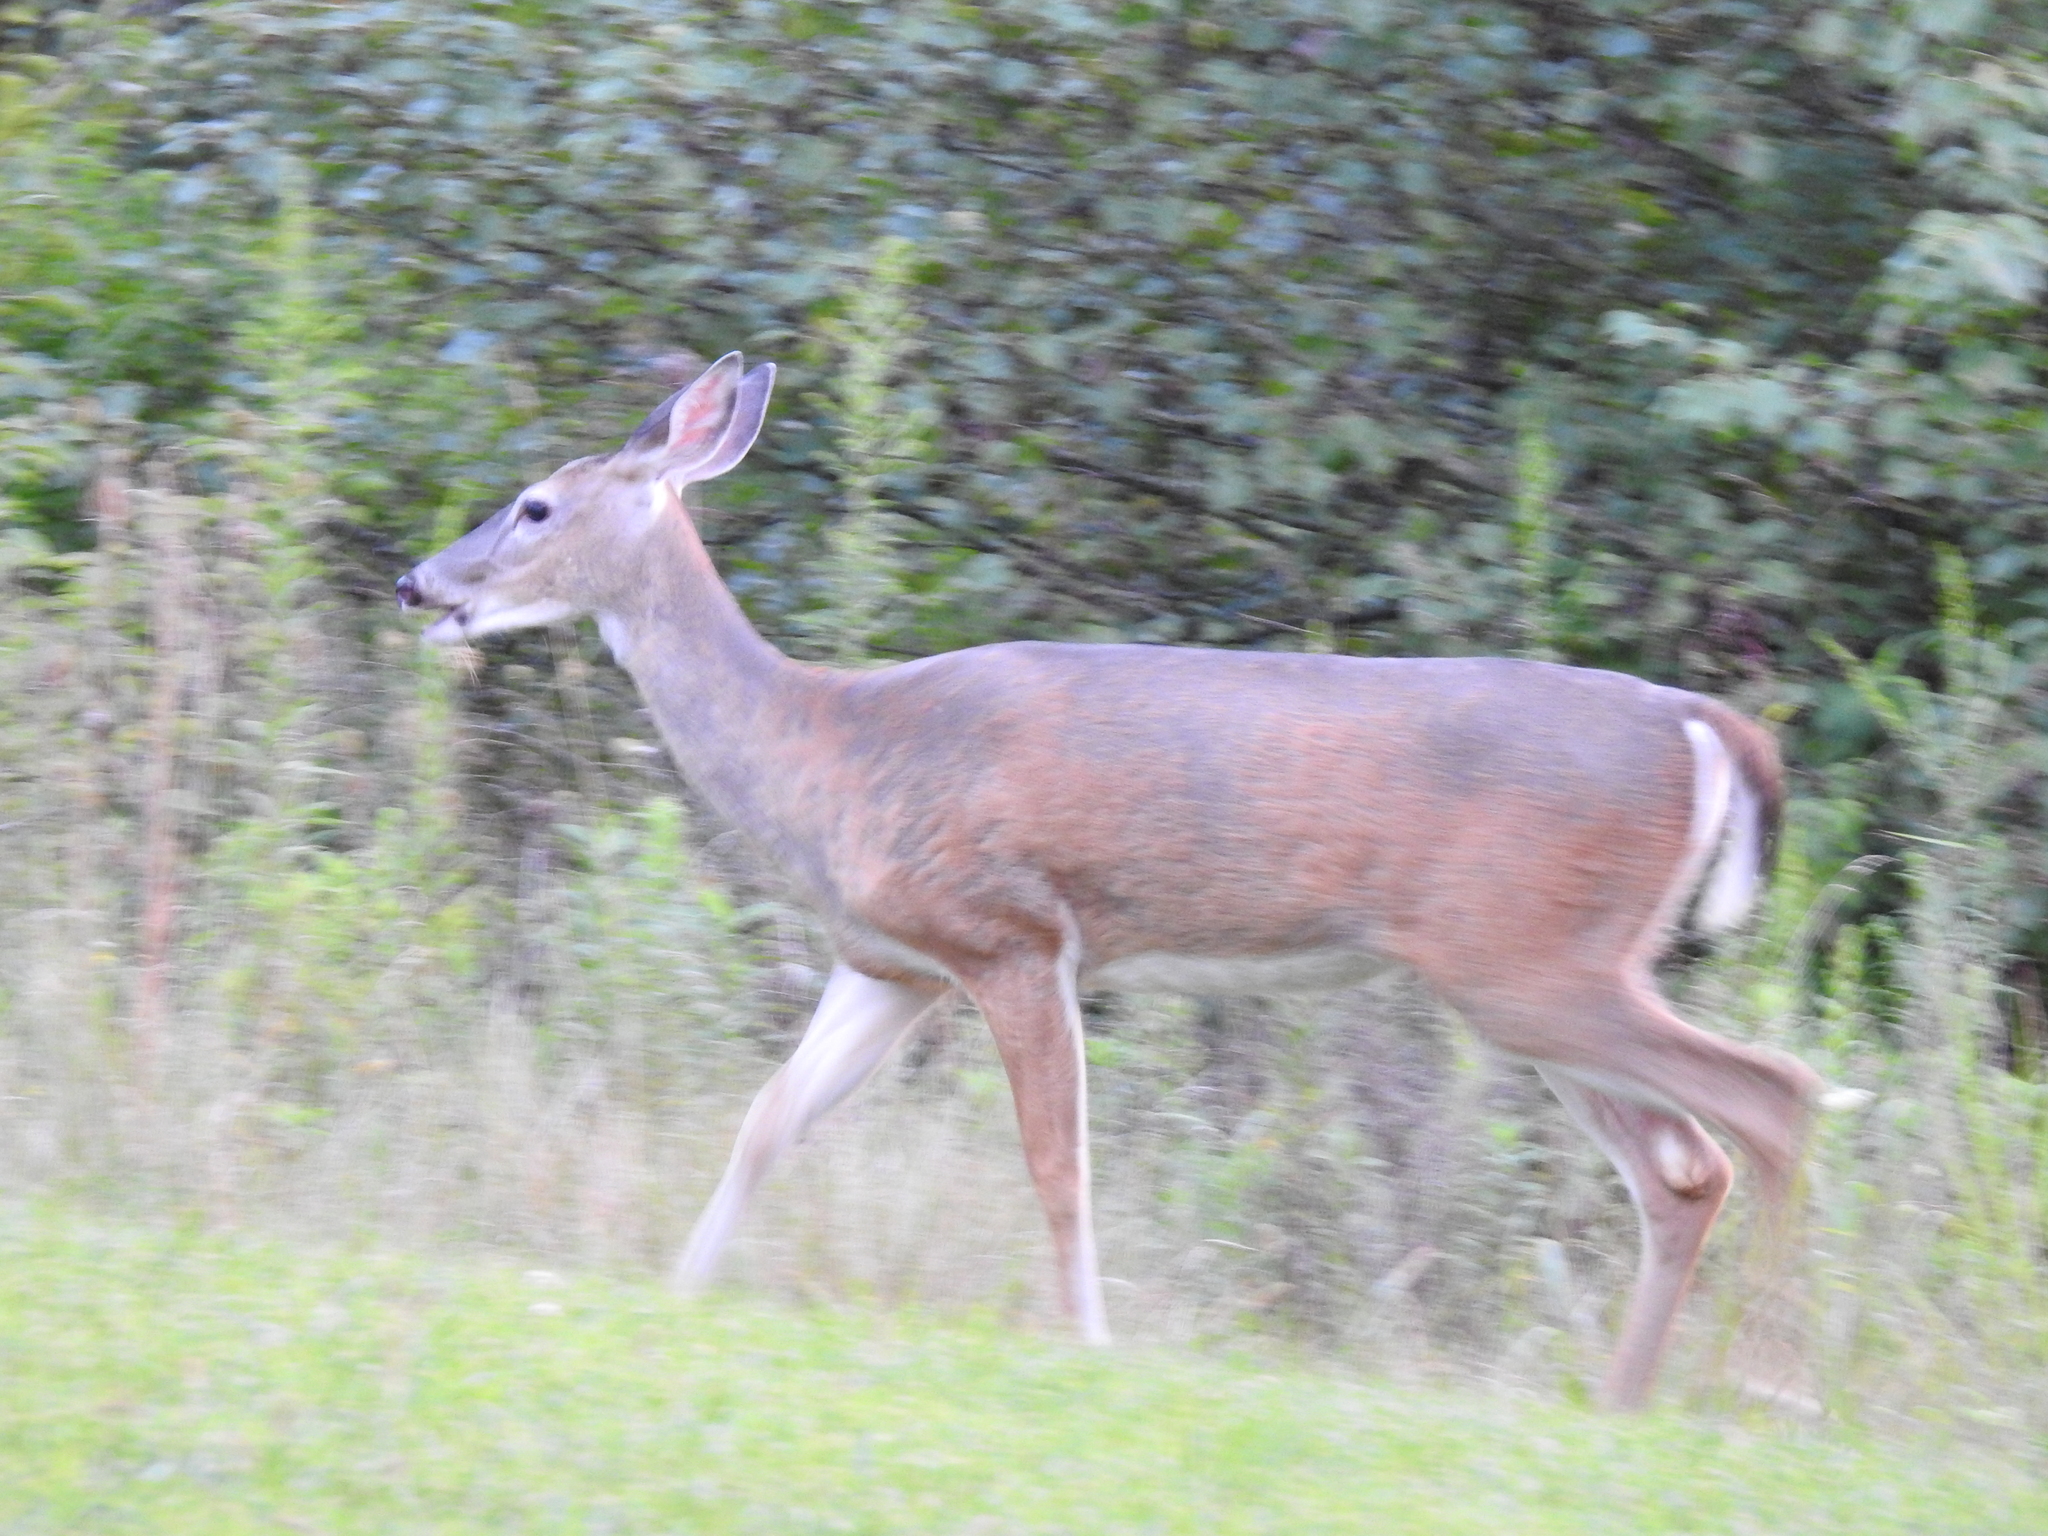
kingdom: Animalia
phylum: Chordata
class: Mammalia
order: Artiodactyla
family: Cervidae
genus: Odocoileus
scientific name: Odocoileus virginianus
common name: White-tailed deer
